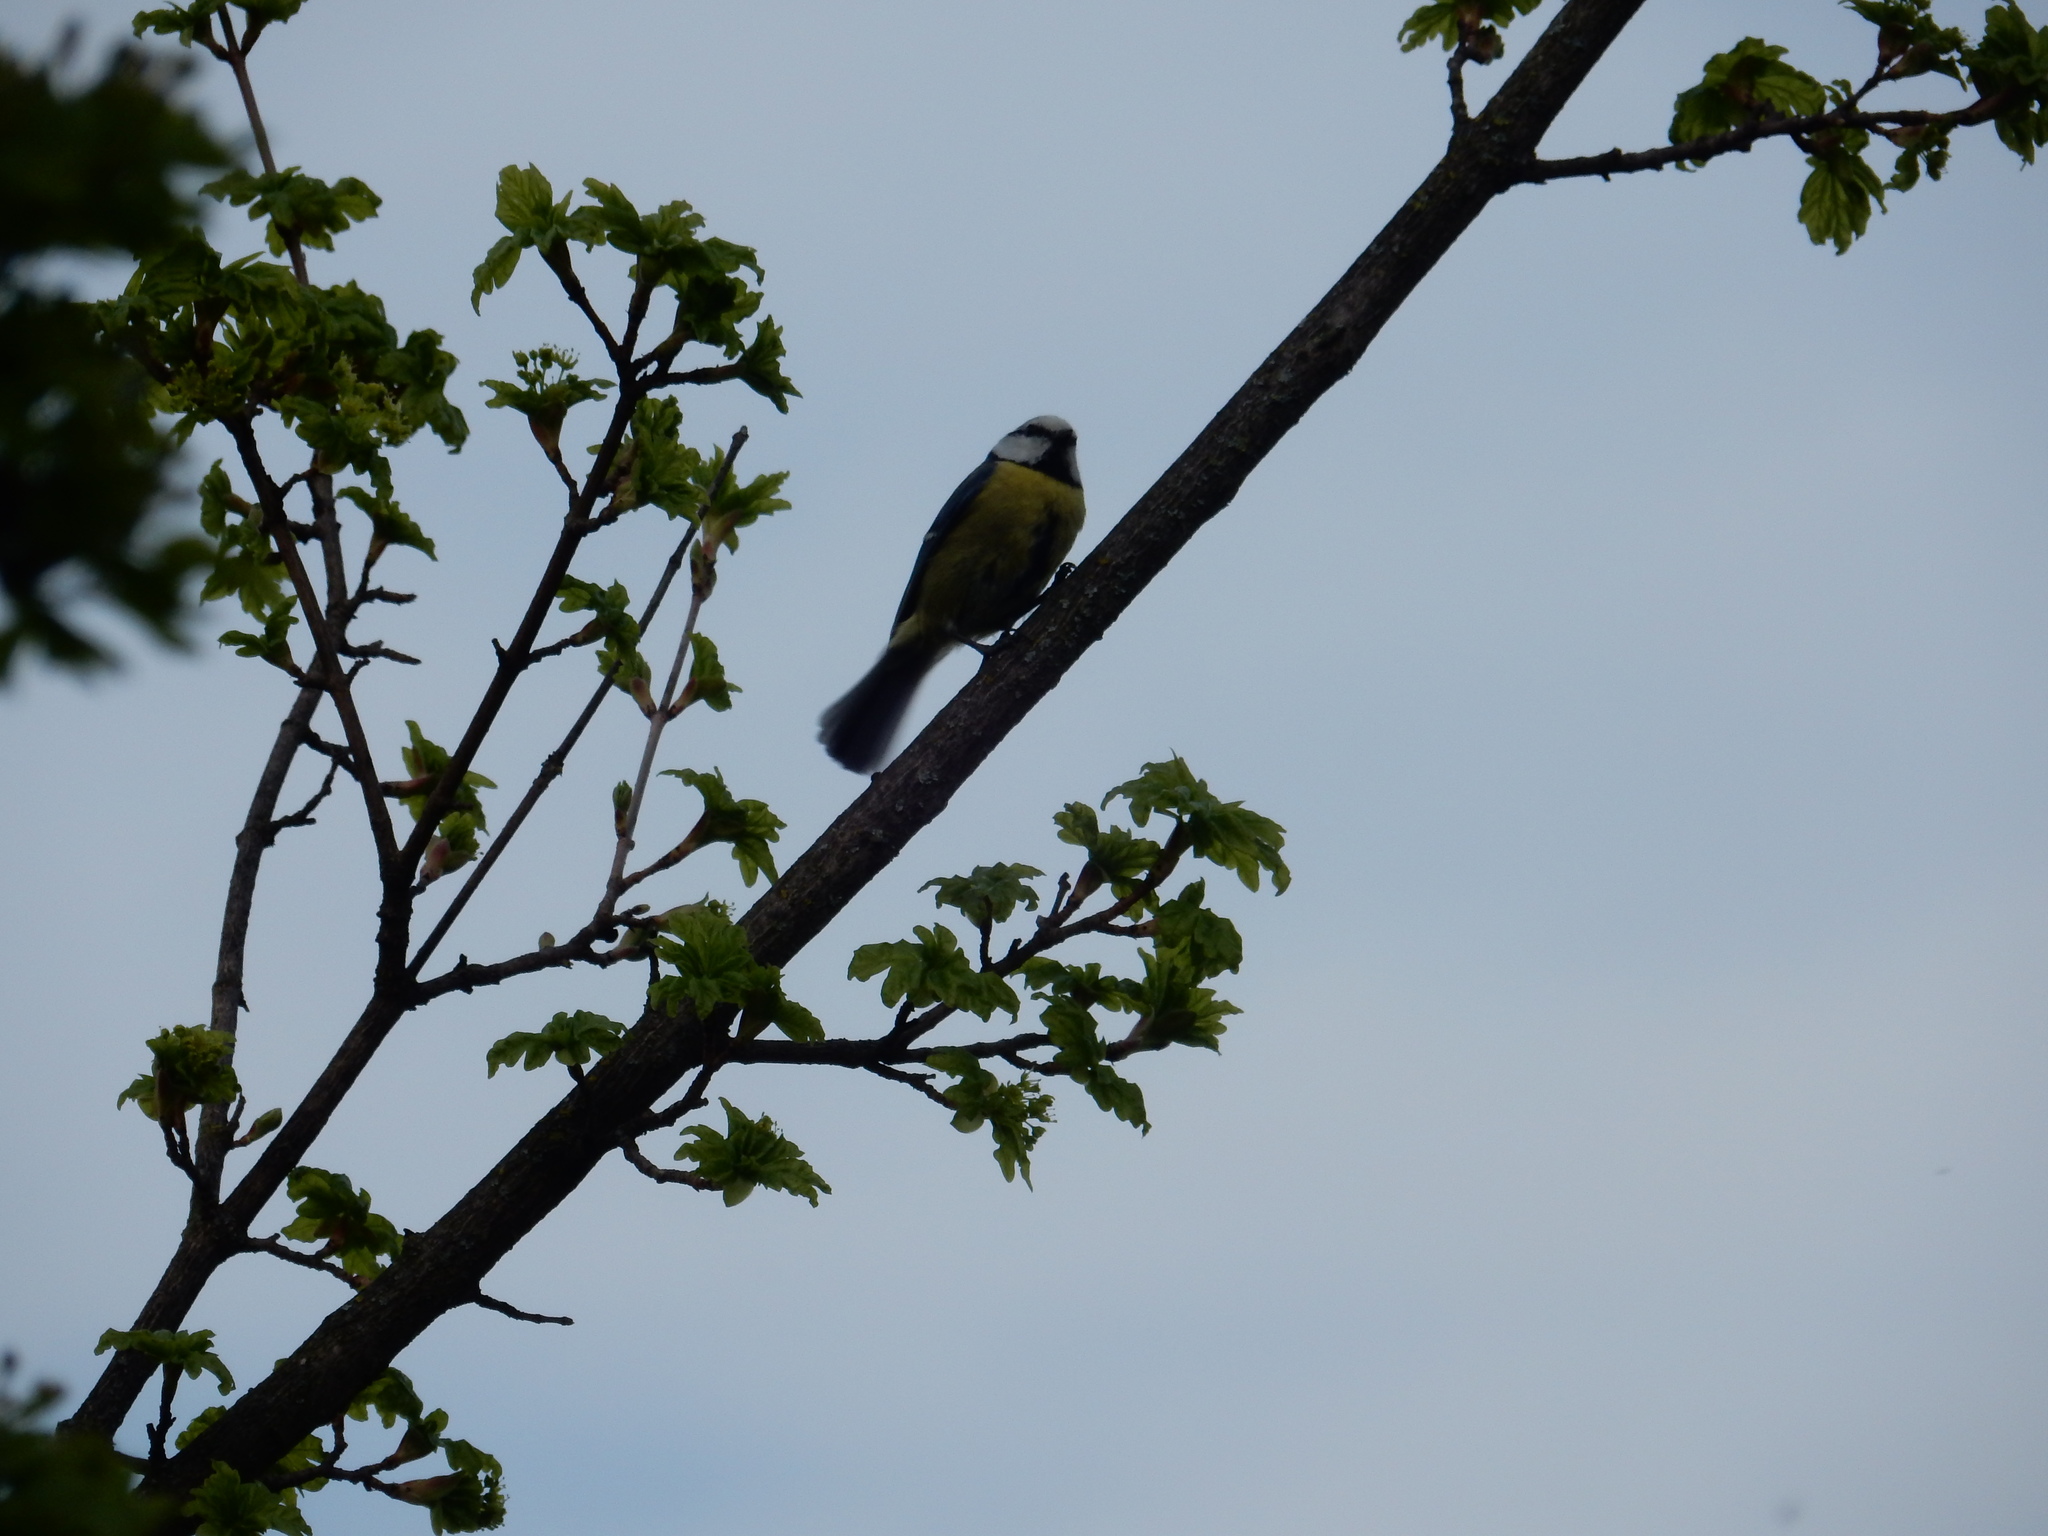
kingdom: Animalia
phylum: Chordata
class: Aves
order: Passeriformes
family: Paridae
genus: Cyanistes
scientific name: Cyanistes caeruleus
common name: Eurasian blue tit
